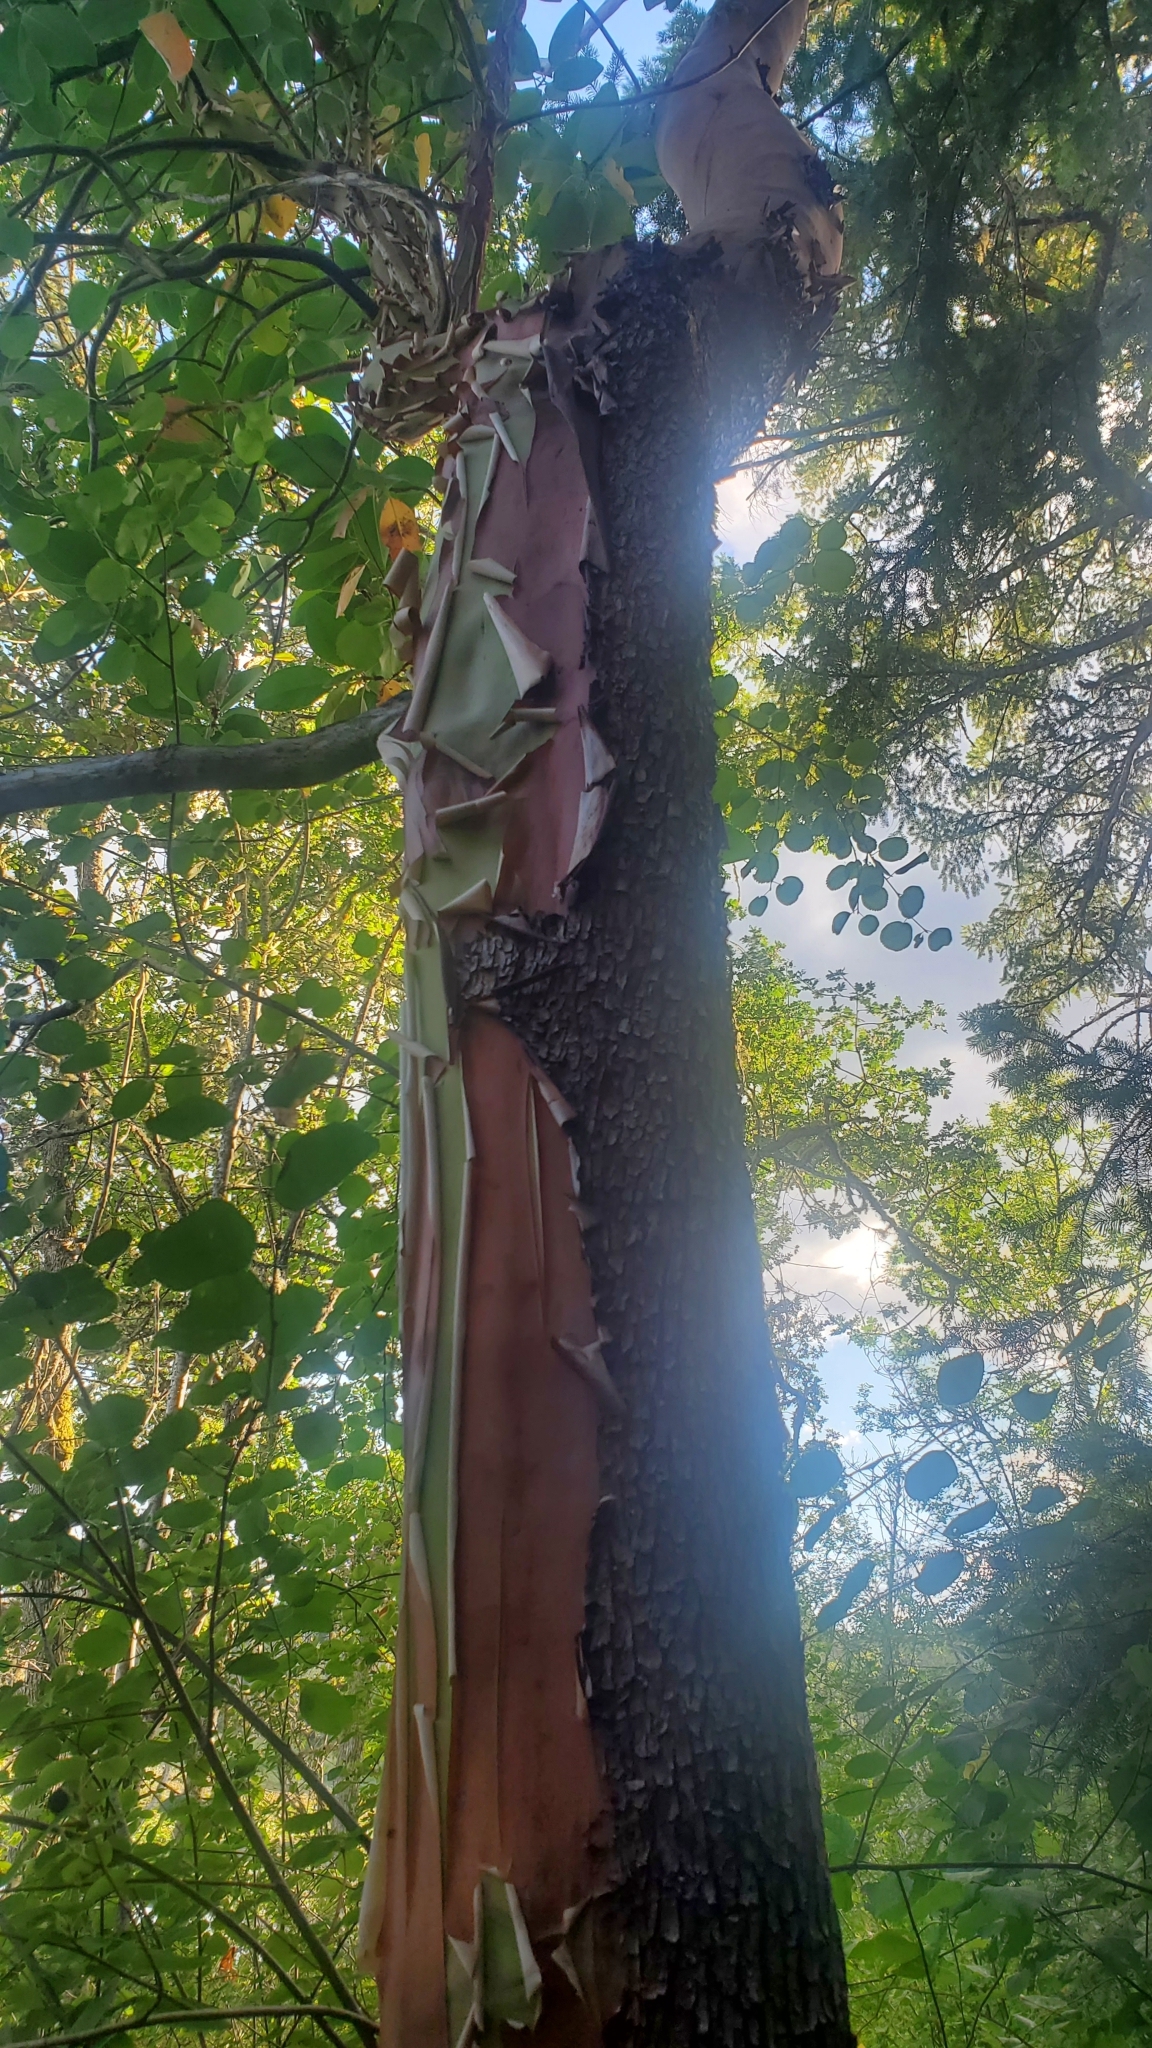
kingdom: Plantae
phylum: Tracheophyta
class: Magnoliopsida
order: Ericales
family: Ericaceae
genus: Arbutus
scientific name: Arbutus menziesii
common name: Pacific madrone
